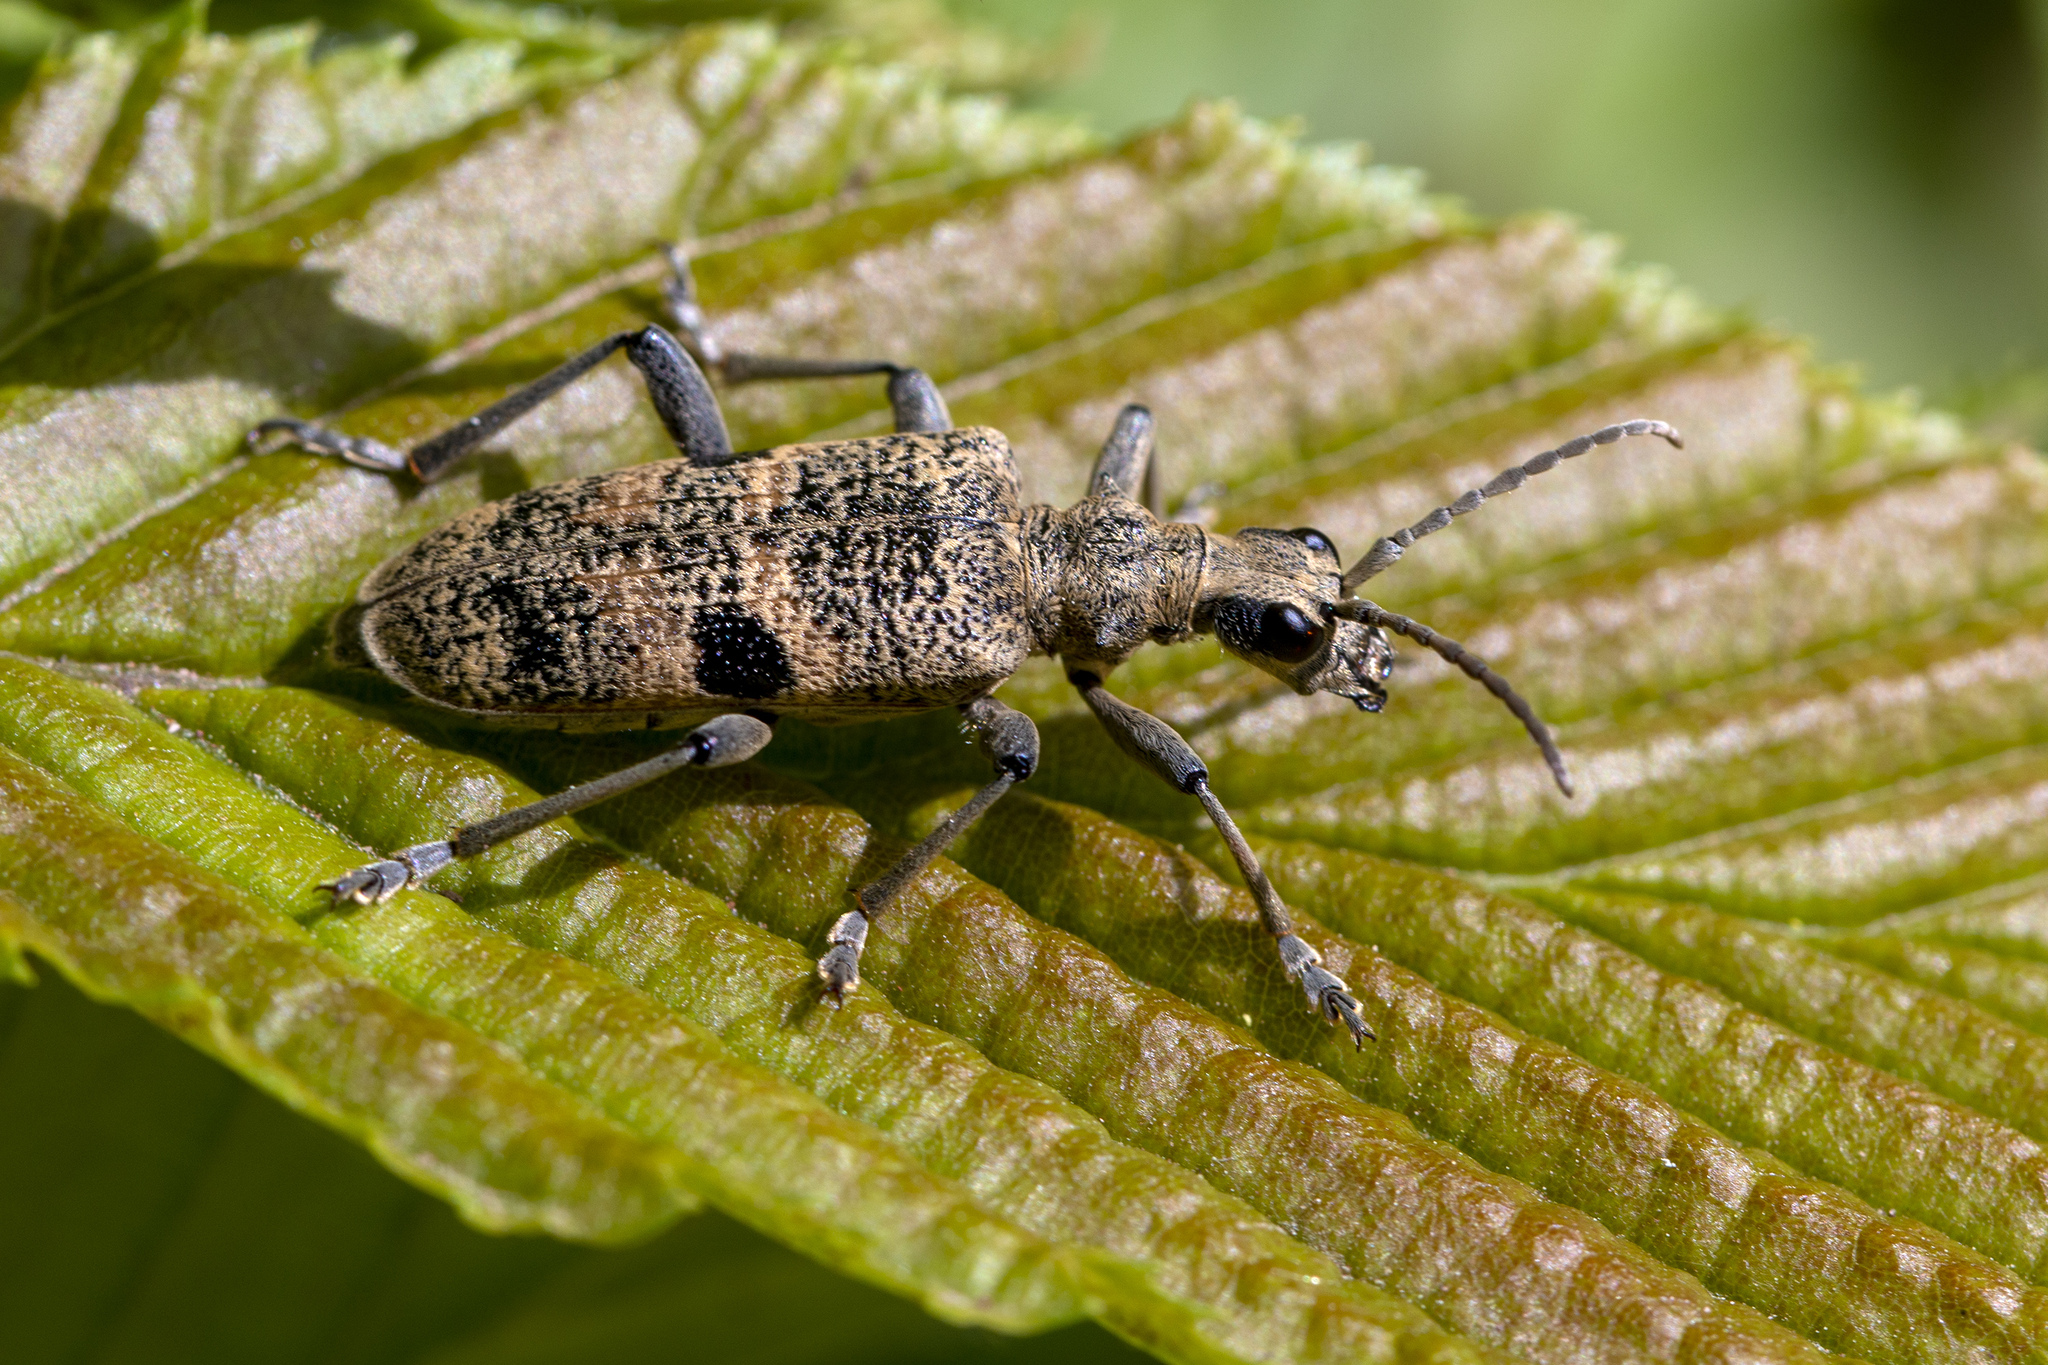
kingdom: Animalia
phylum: Arthropoda
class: Insecta
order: Coleoptera
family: Cerambycidae
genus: Rhagium
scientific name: Rhagium mordax
